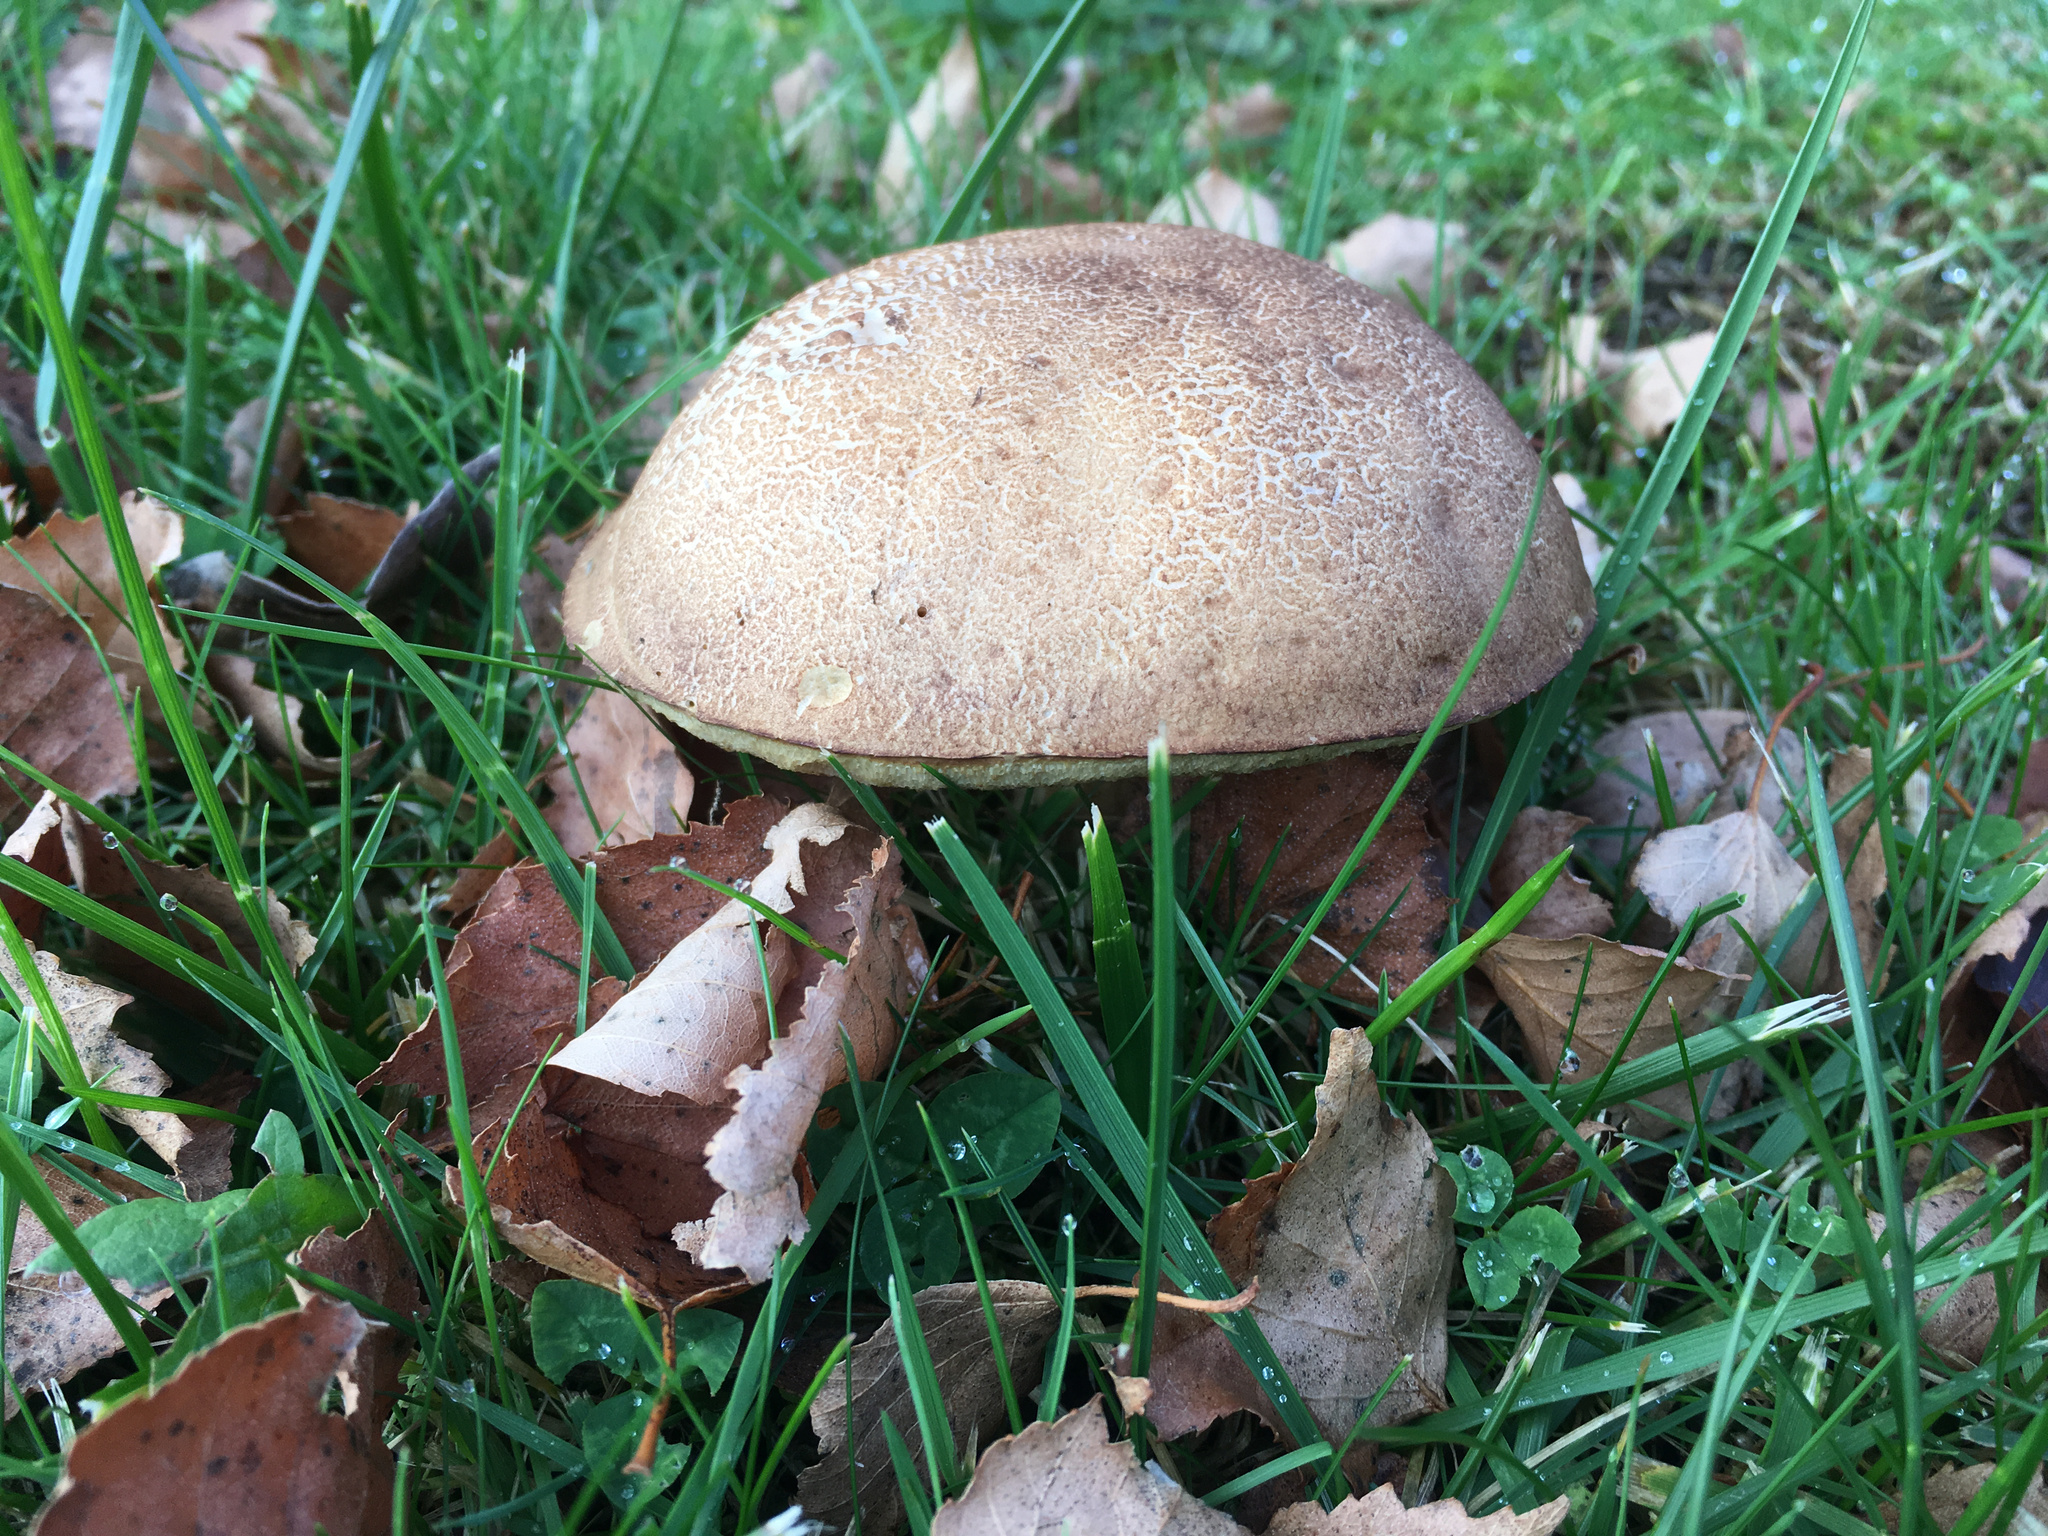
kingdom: Fungi
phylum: Basidiomycota
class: Agaricomycetes
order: Boletales
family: Boletaceae
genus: Leccinum
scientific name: Leccinum scabrum
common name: Blushing bolete
